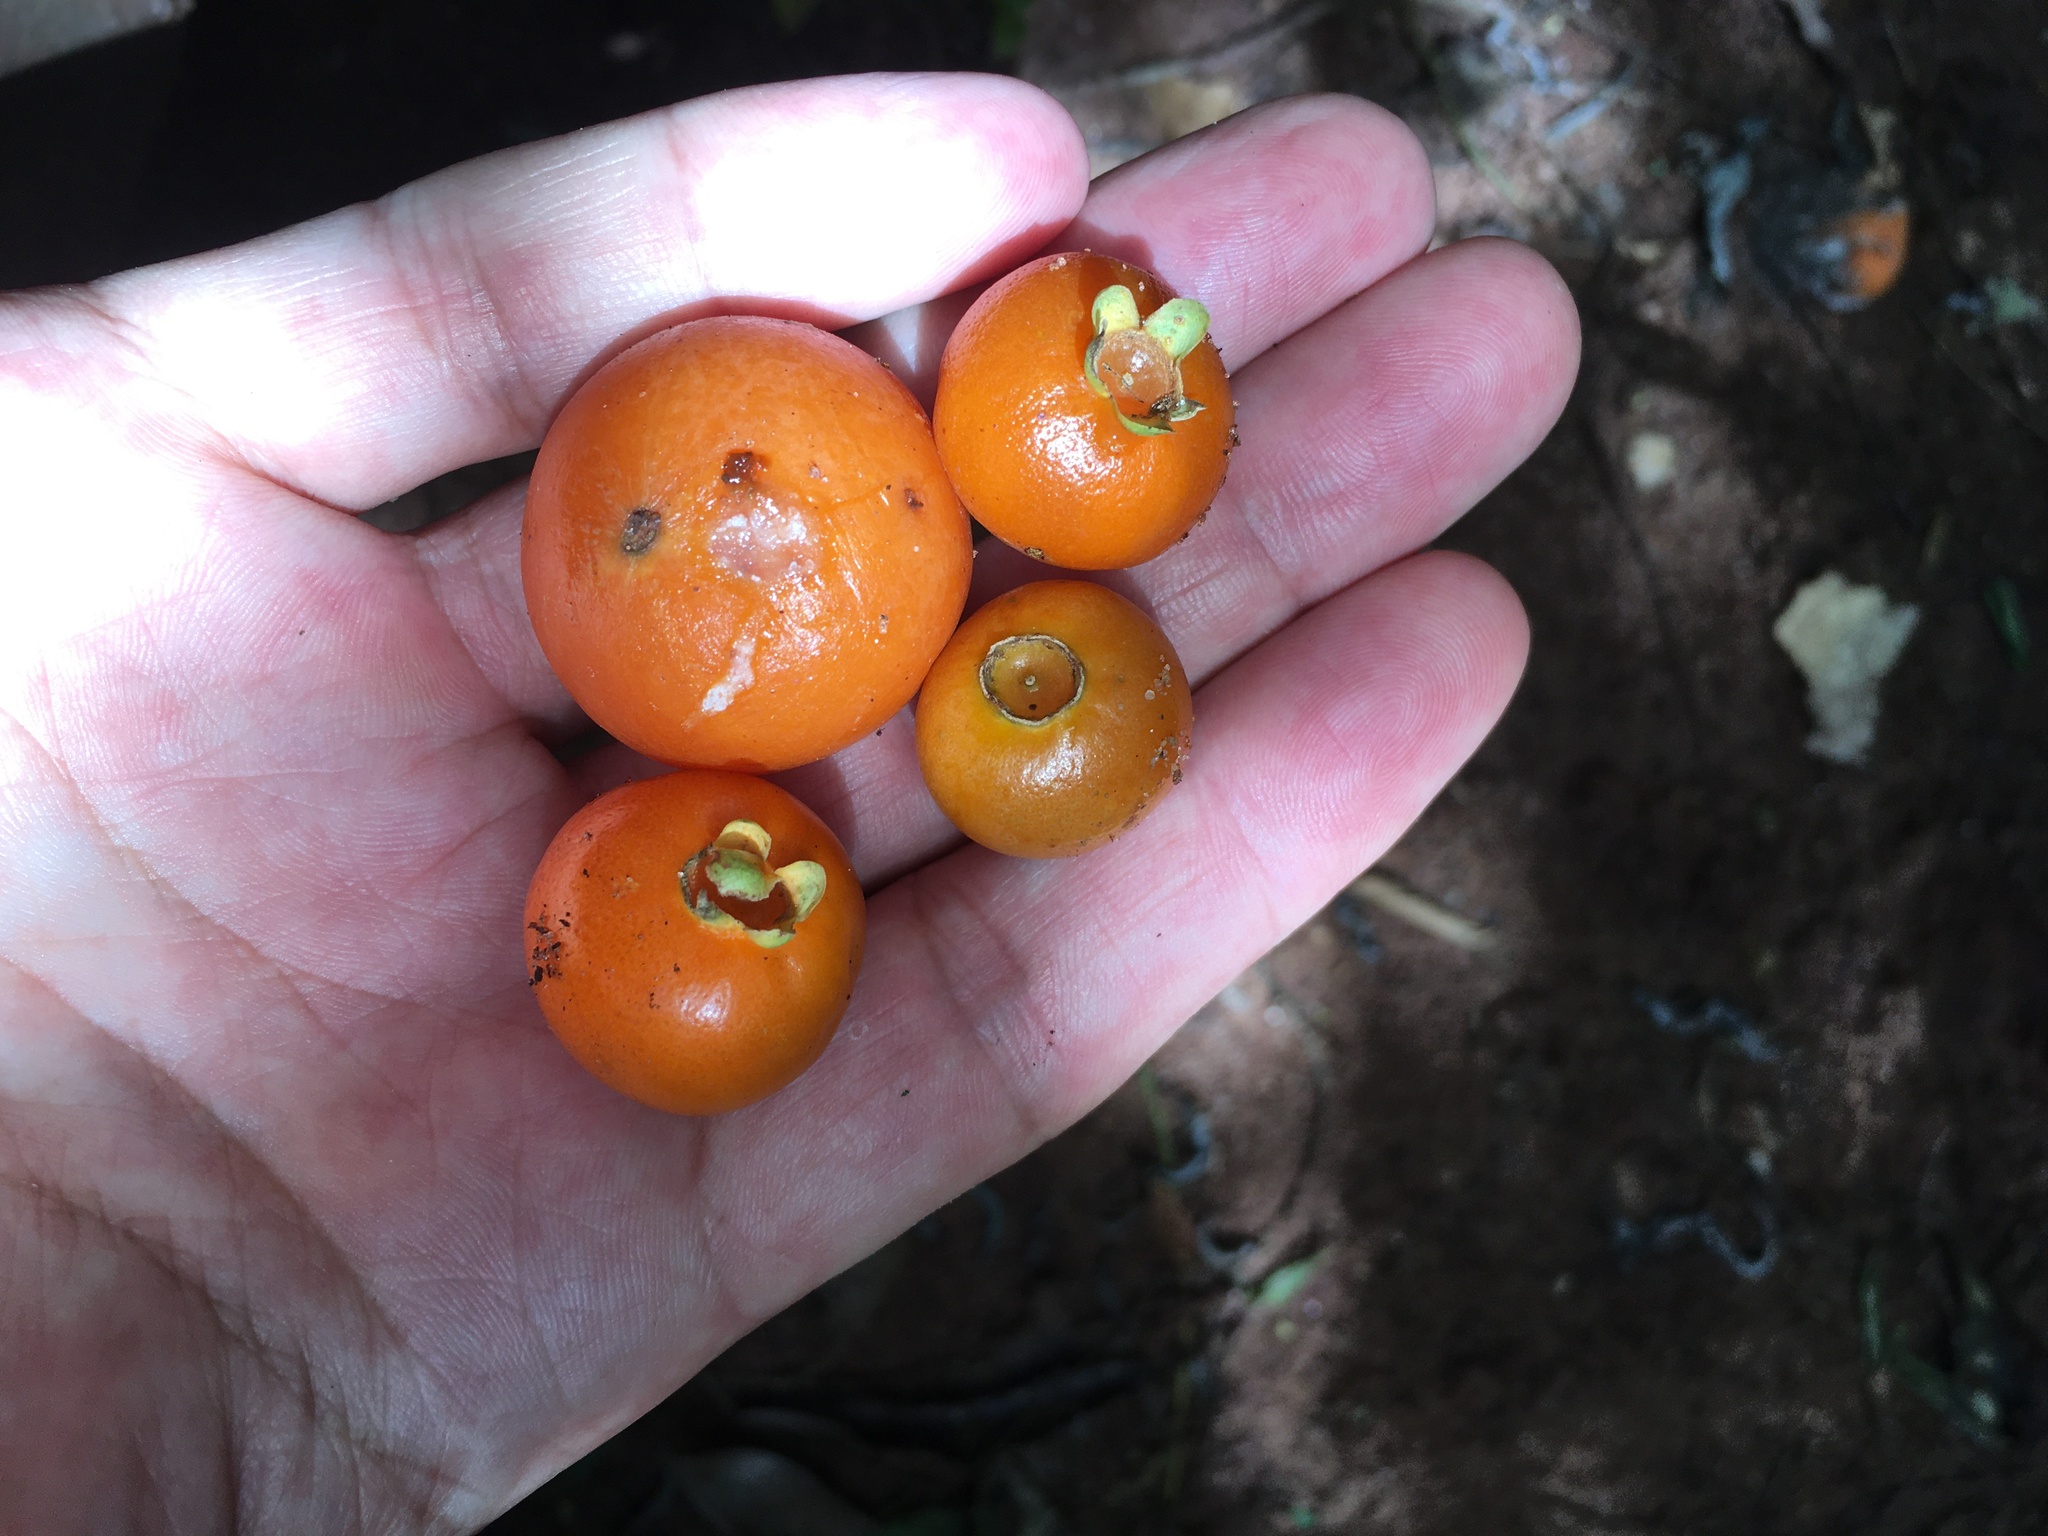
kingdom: Plantae
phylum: Tracheophyta
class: Magnoliopsida
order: Myrtales
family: Myrtaceae
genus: Campomanesia
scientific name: Campomanesia xanthocarpa
